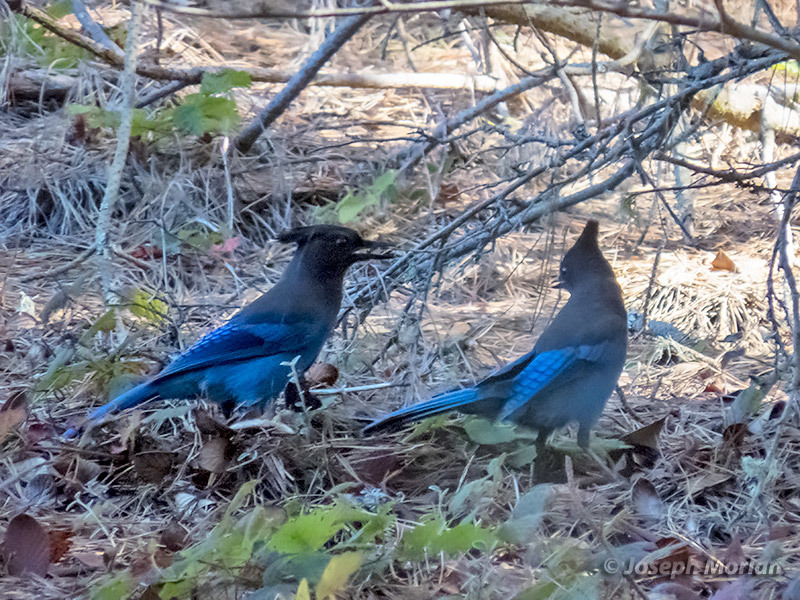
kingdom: Animalia
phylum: Chordata
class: Aves
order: Passeriformes
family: Corvidae
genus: Cyanocitta
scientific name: Cyanocitta stelleri
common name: Steller's jay
